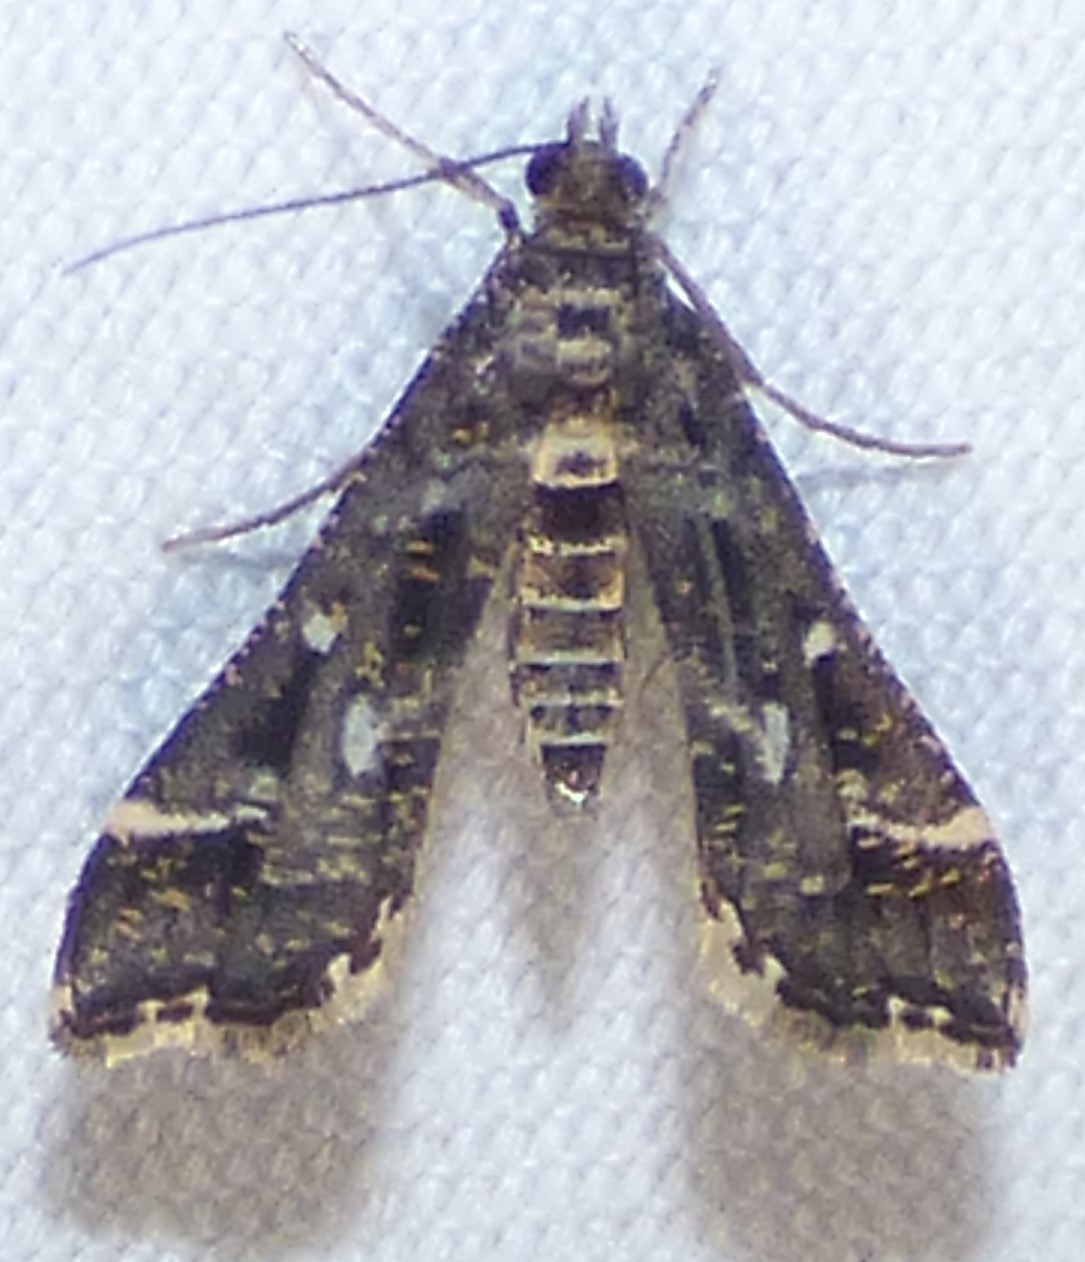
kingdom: Animalia
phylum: Arthropoda
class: Insecta
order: Lepidoptera
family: Crambidae
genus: Diasemiopsis
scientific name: Diasemiopsis ramburialis
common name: Vagrant china-mark
